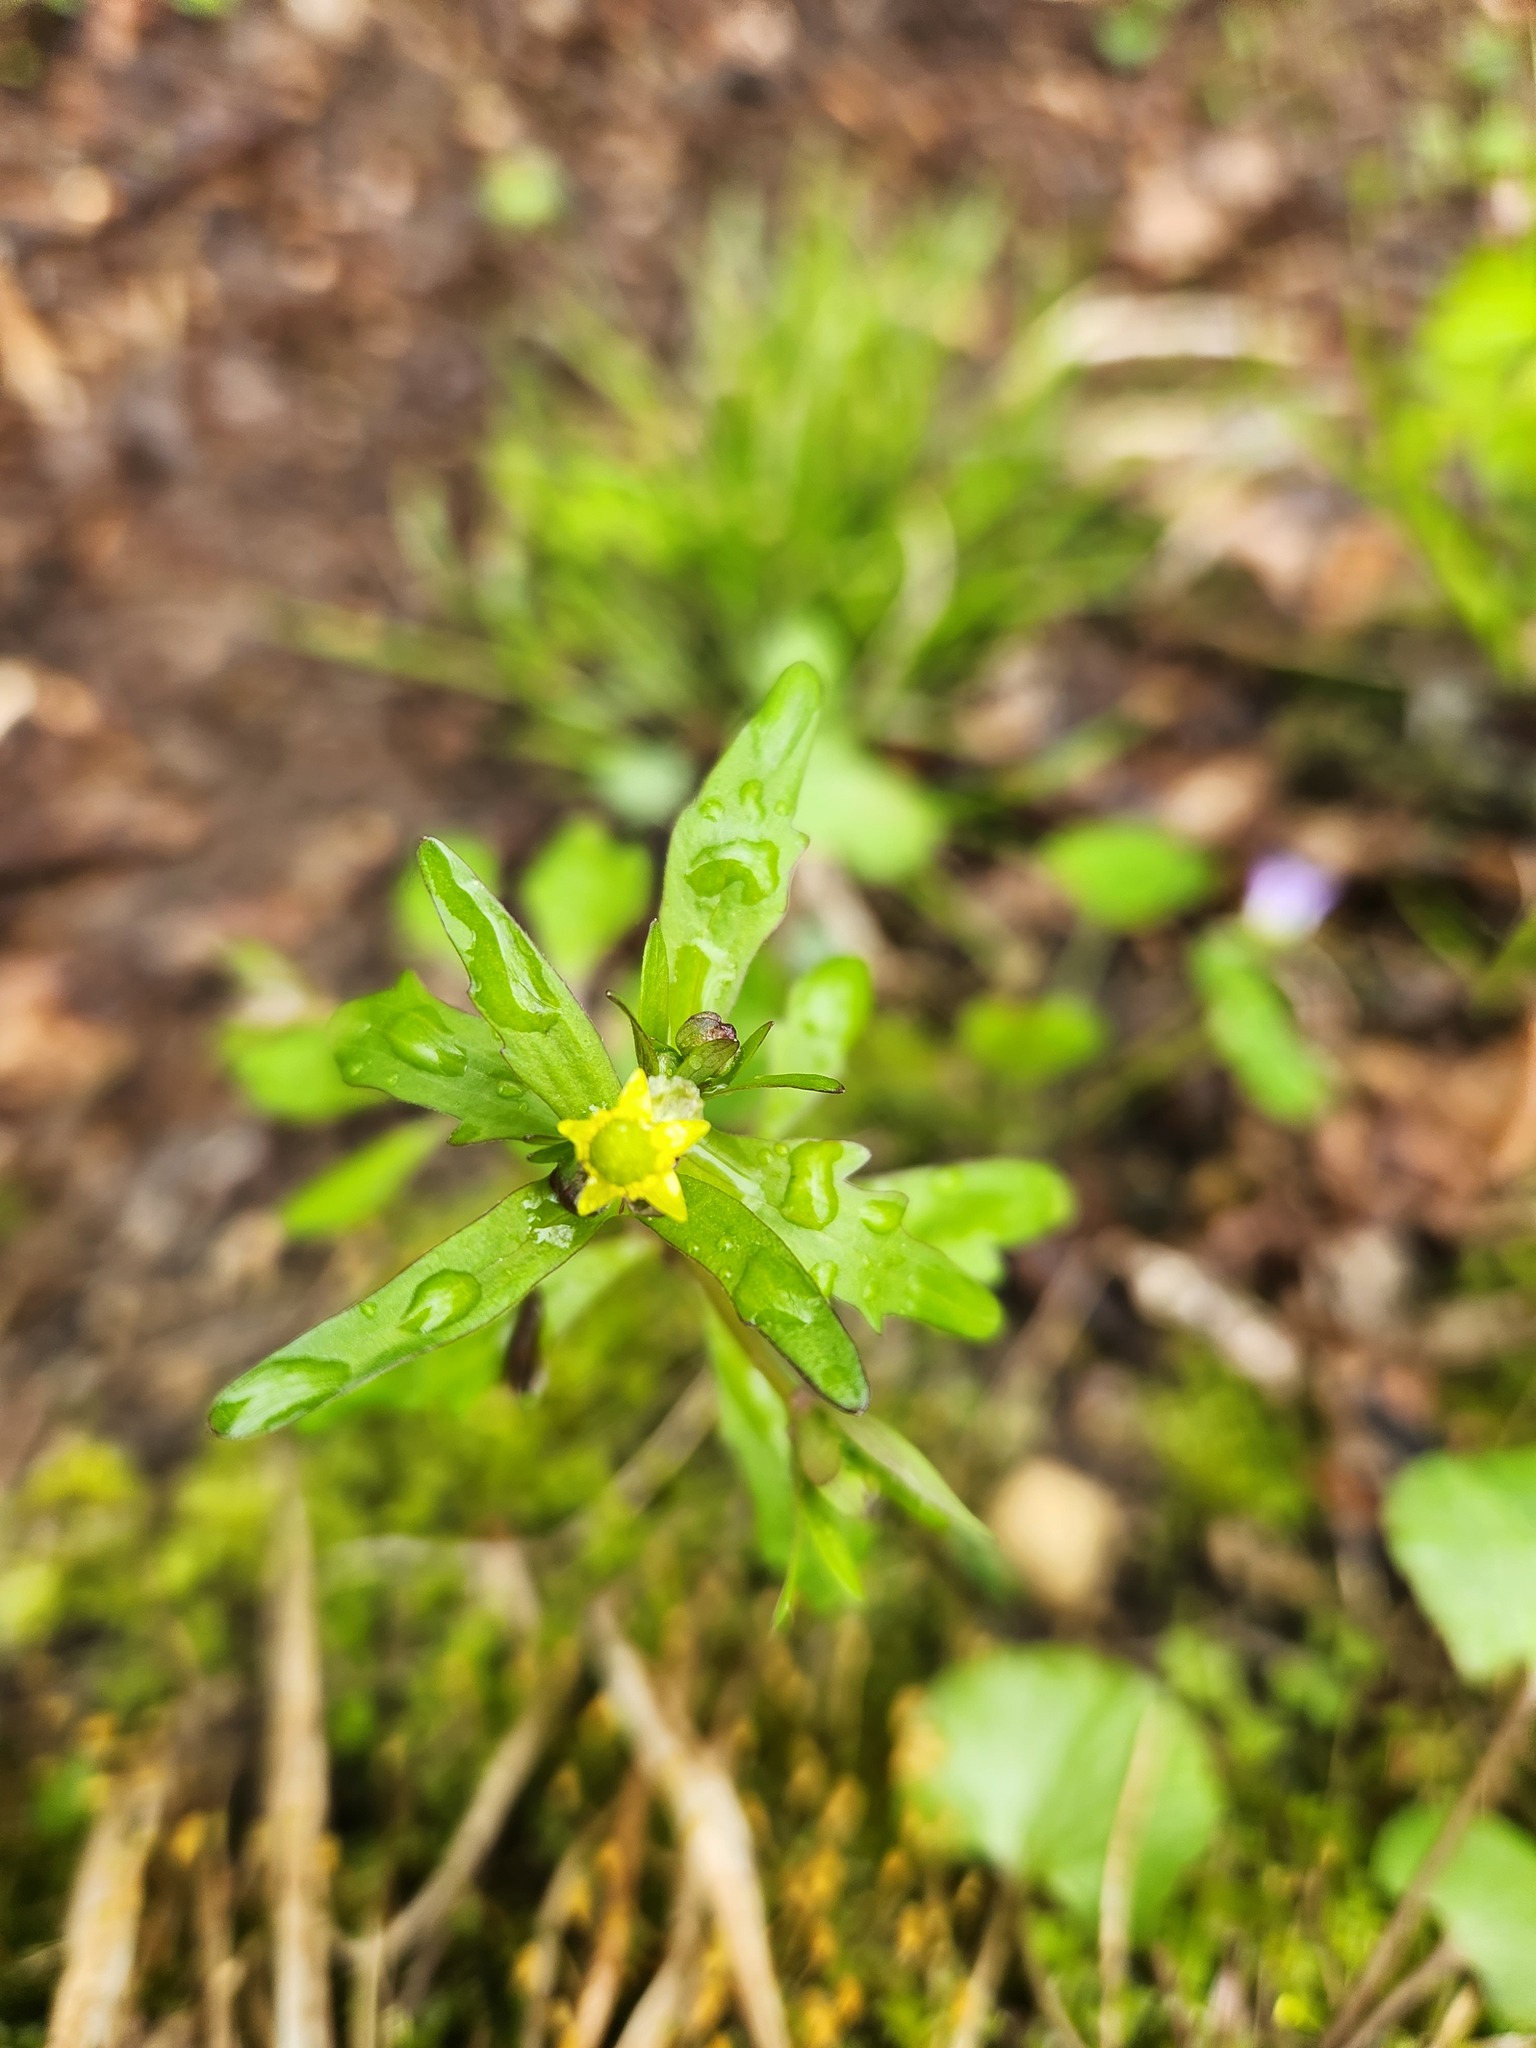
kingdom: Plantae
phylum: Tracheophyta
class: Magnoliopsida
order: Ranunculales
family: Ranunculaceae
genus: Ranunculus
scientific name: Ranunculus abortivus
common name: Early wood buttercup
